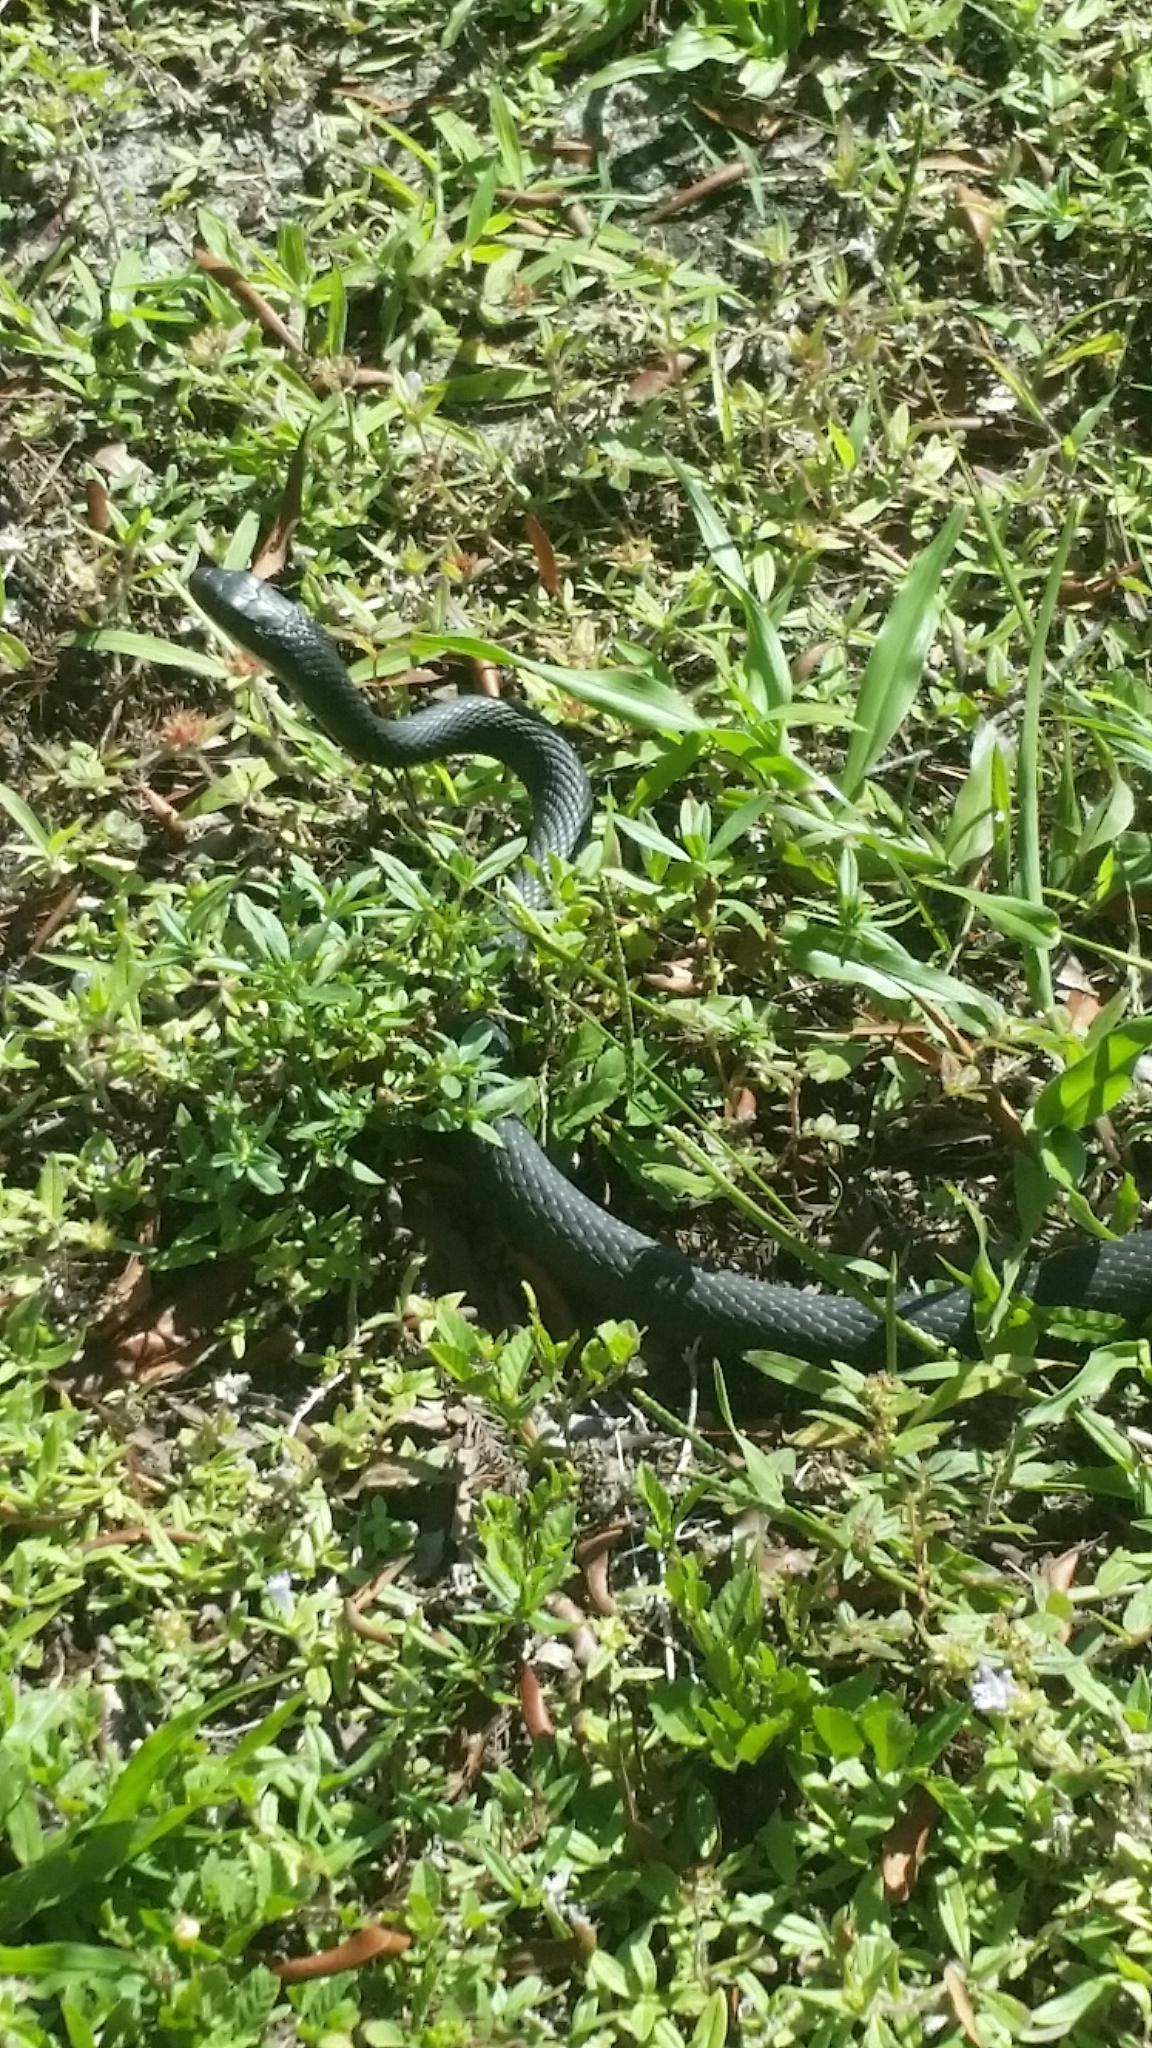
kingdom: Animalia
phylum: Chordata
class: Squamata
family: Colubridae
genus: Coluber
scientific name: Coluber constrictor
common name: Eastern racer
